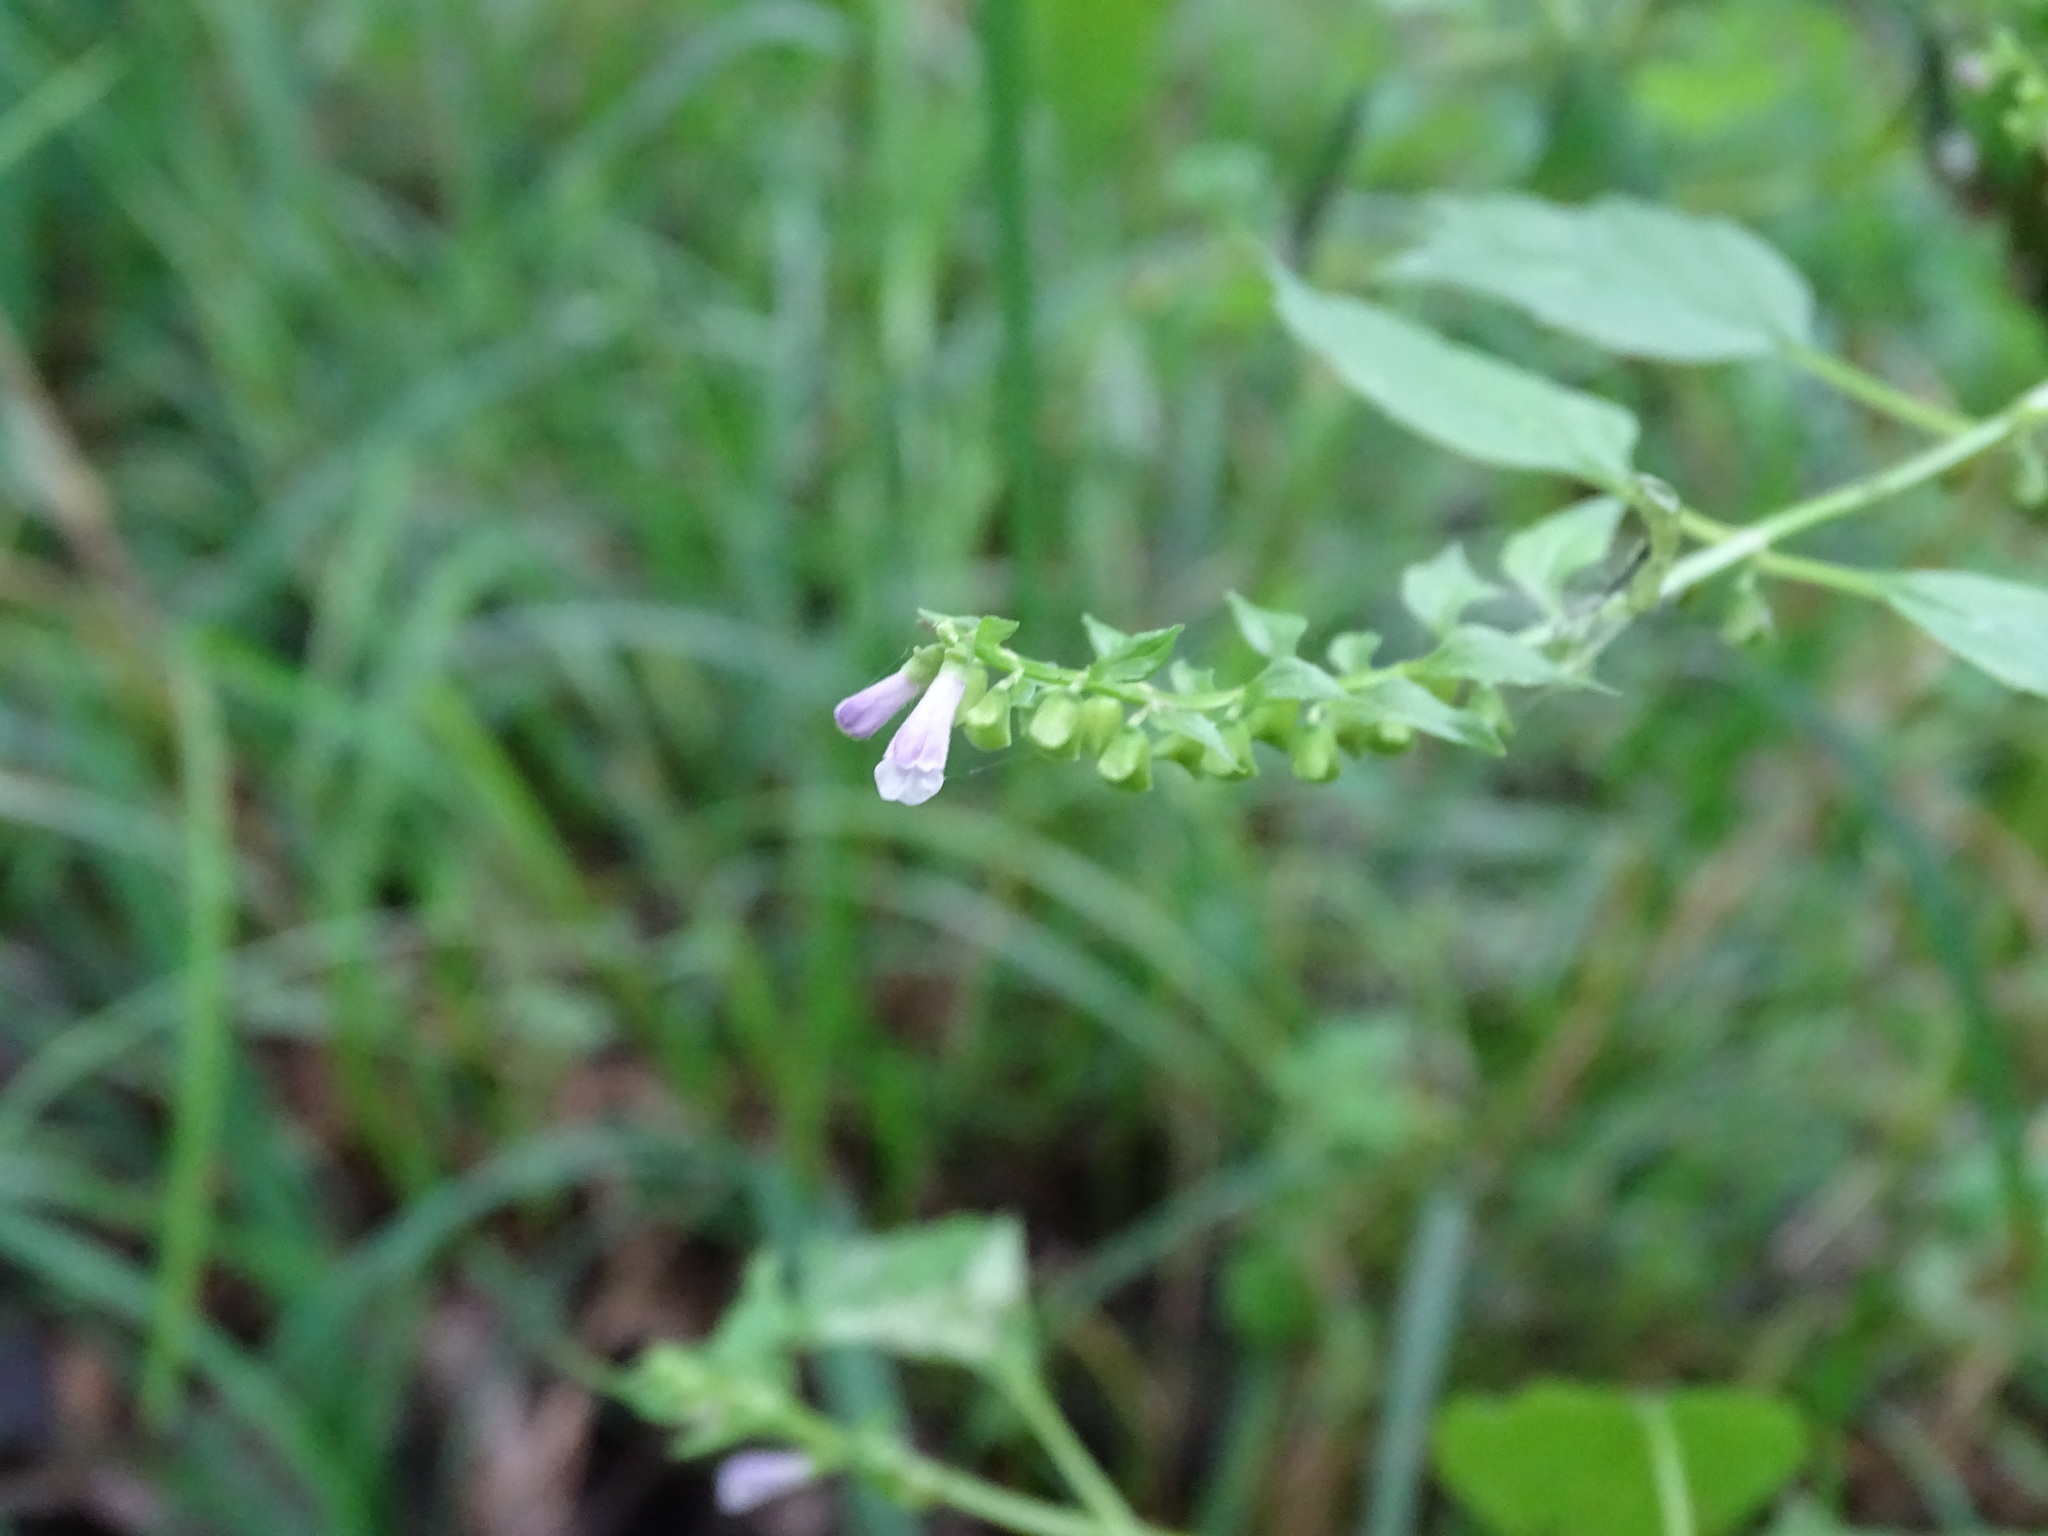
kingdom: Plantae
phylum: Tracheophyta
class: Magnoliopsida
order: Lamiales
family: Lamiaceae
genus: Scutellaria
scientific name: Scutellaria lateriflora
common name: Blue skullcap
